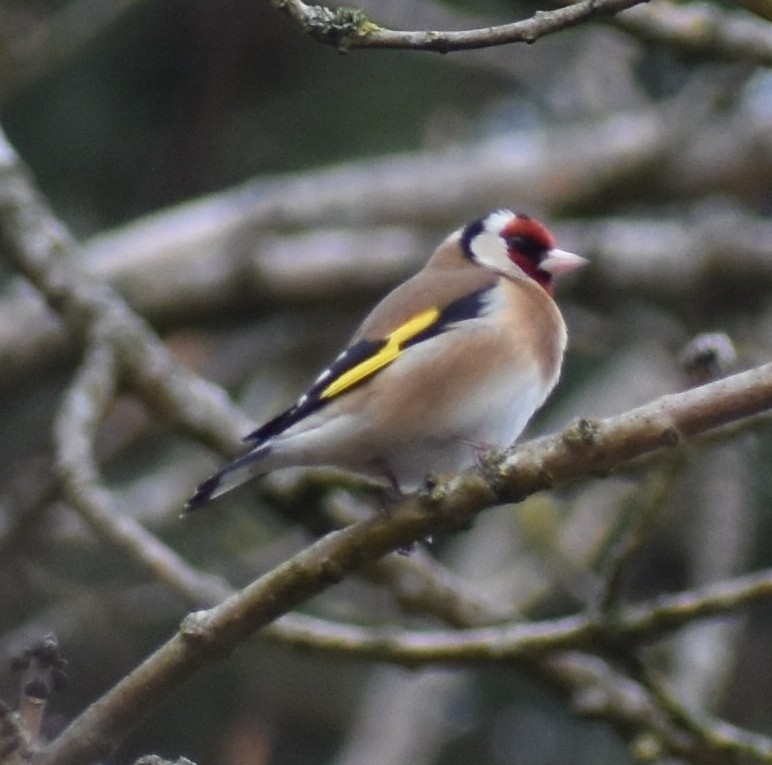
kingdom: Animalia
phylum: Chordata
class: Aves
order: Passeriformes
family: Fringillidae
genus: Carduelis
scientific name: Carduelis carduelis
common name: European goldfinch
